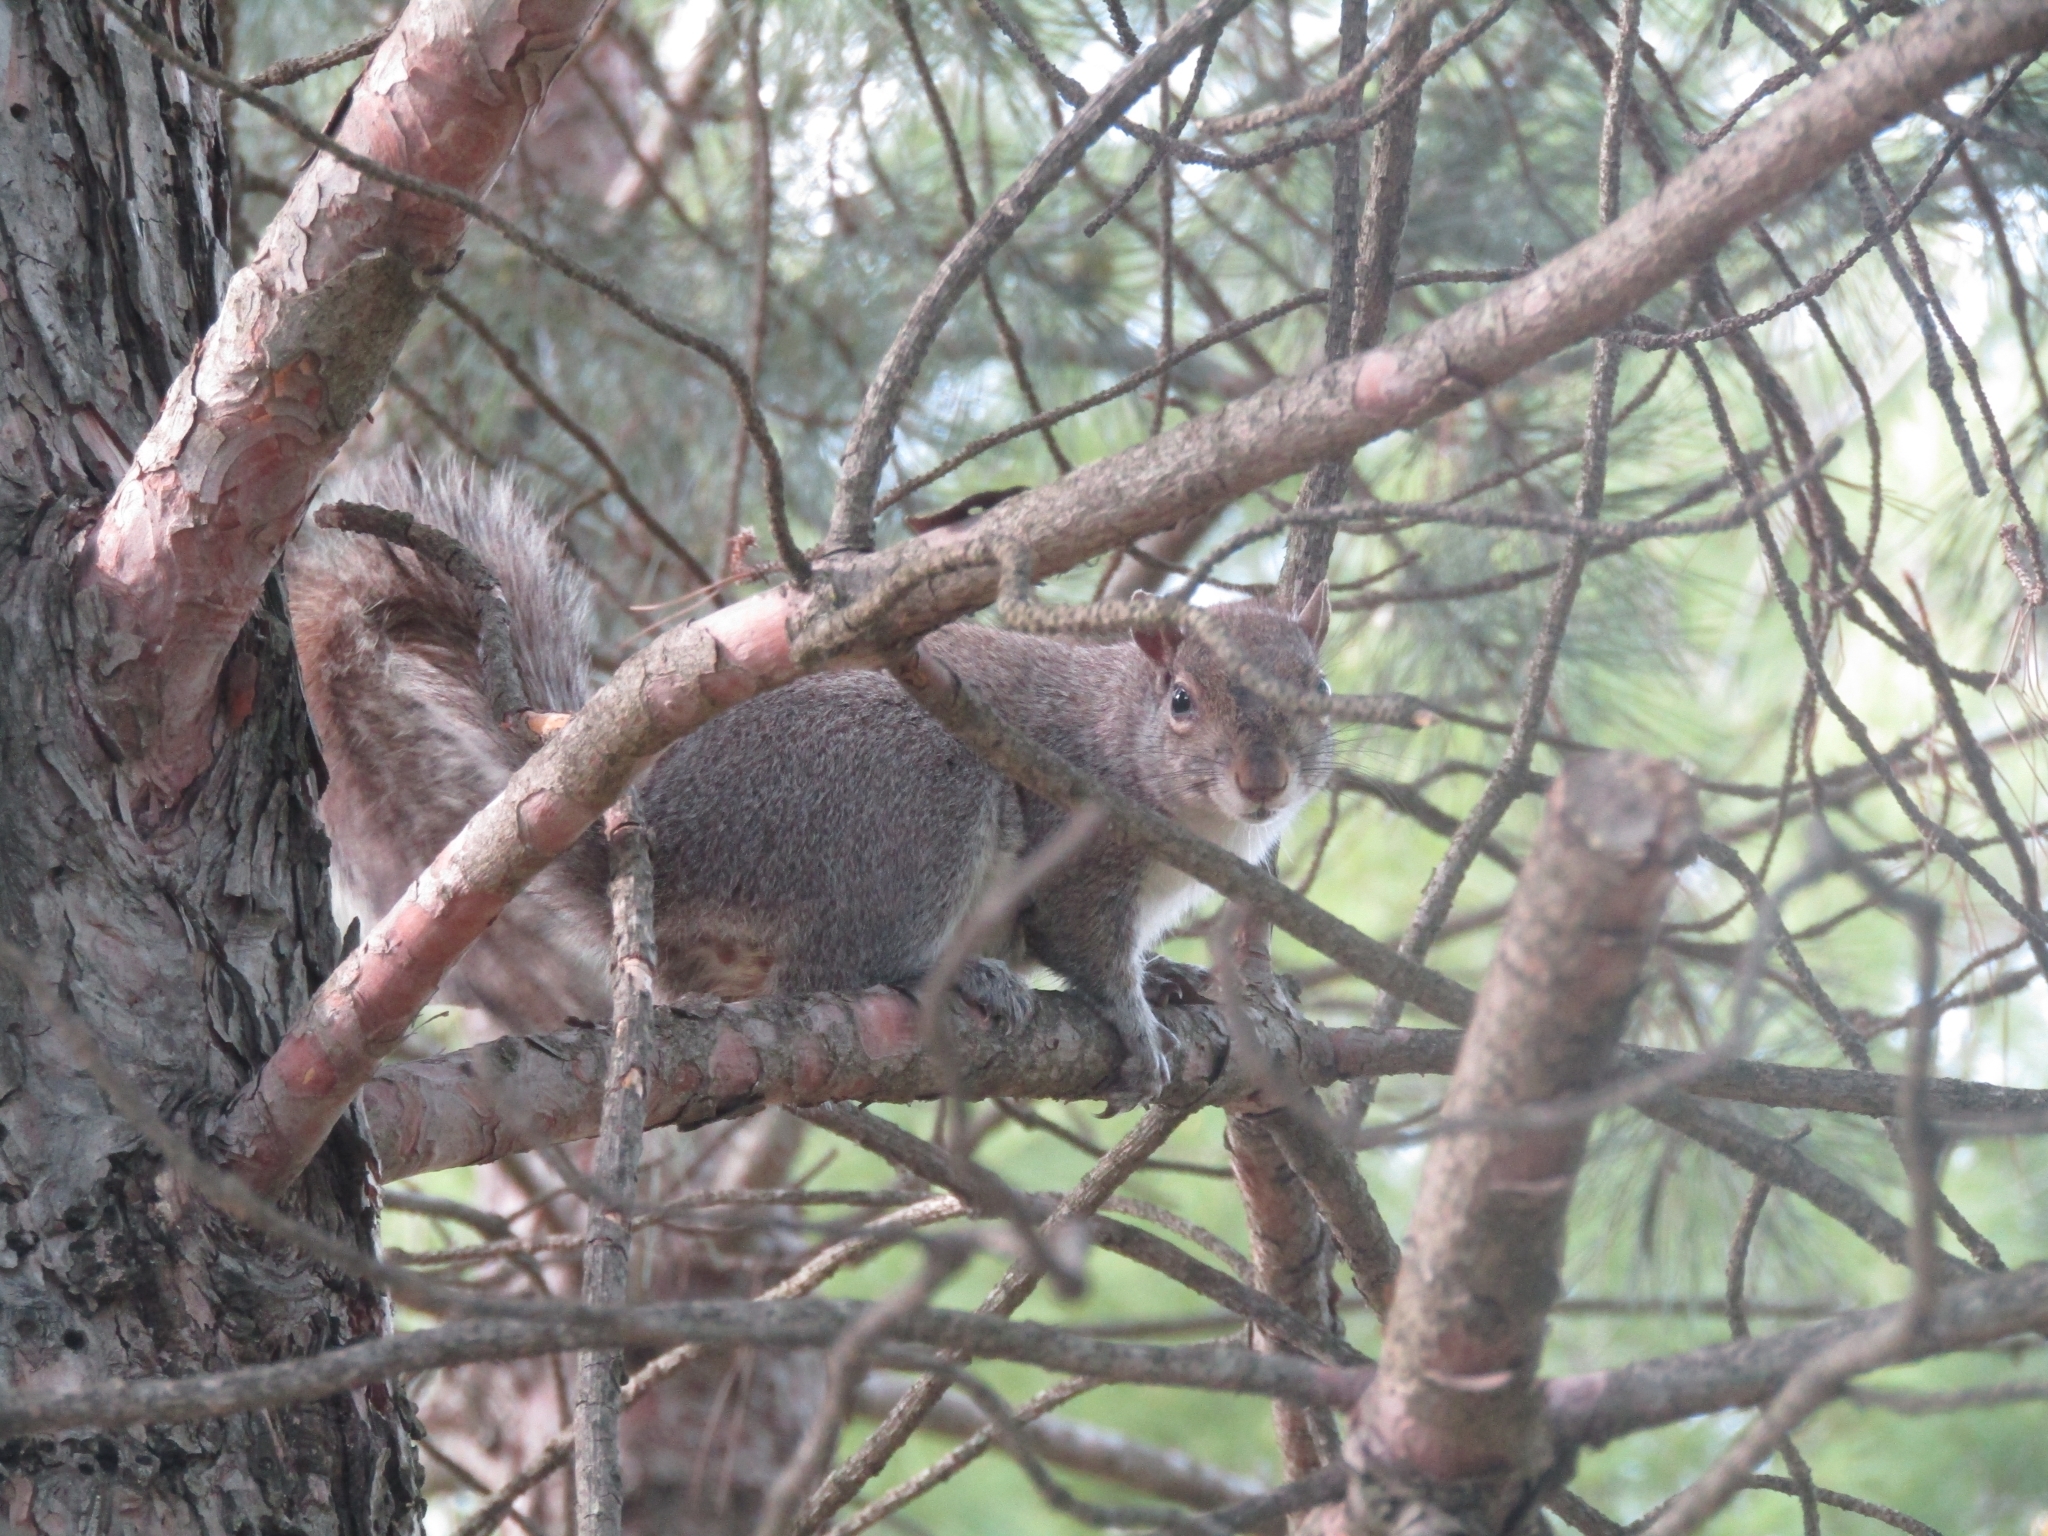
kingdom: Animalia
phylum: Chordata
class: Mammalia
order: Rodentia
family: Sciuridae
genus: Sciurus
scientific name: Sciurus carolinensis
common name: Eastern gray squirrel
